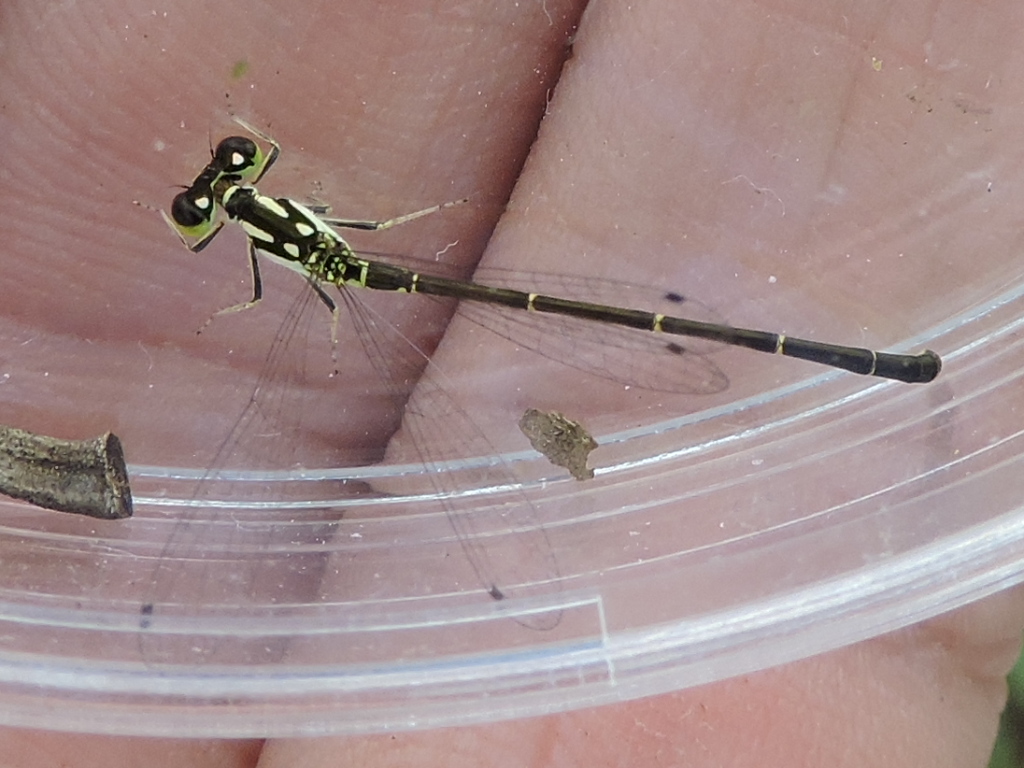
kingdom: Animalia
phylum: Arthropoda
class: Insecta
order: Odonata
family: Coenagrionidae
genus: Ischnura
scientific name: Ischnura posita
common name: Fragile forktail
